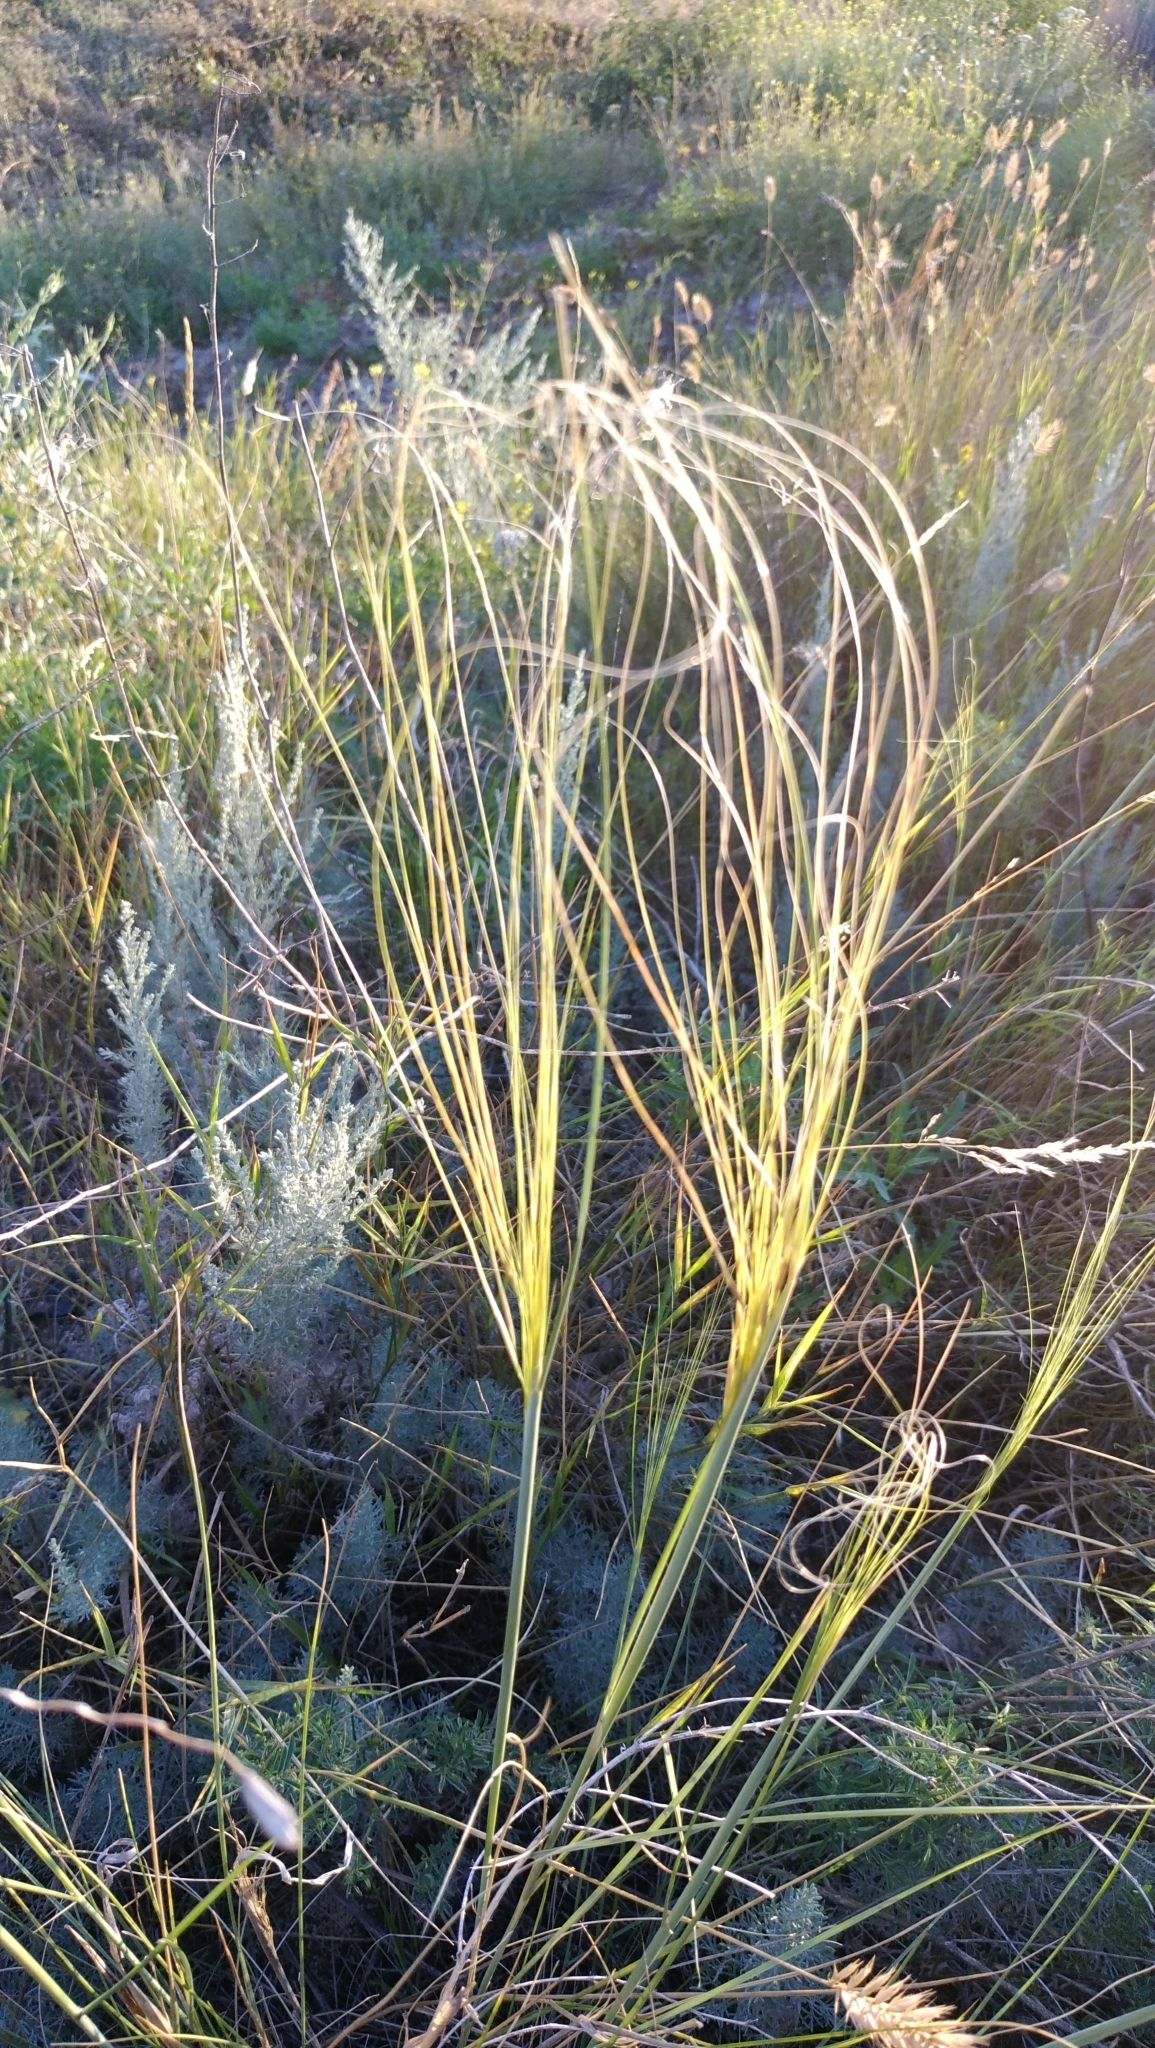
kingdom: Plantae
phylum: Tracheophyta
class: Liliopsida
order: Poales
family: Poaceae
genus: Stipa
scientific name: Stipa capillata
